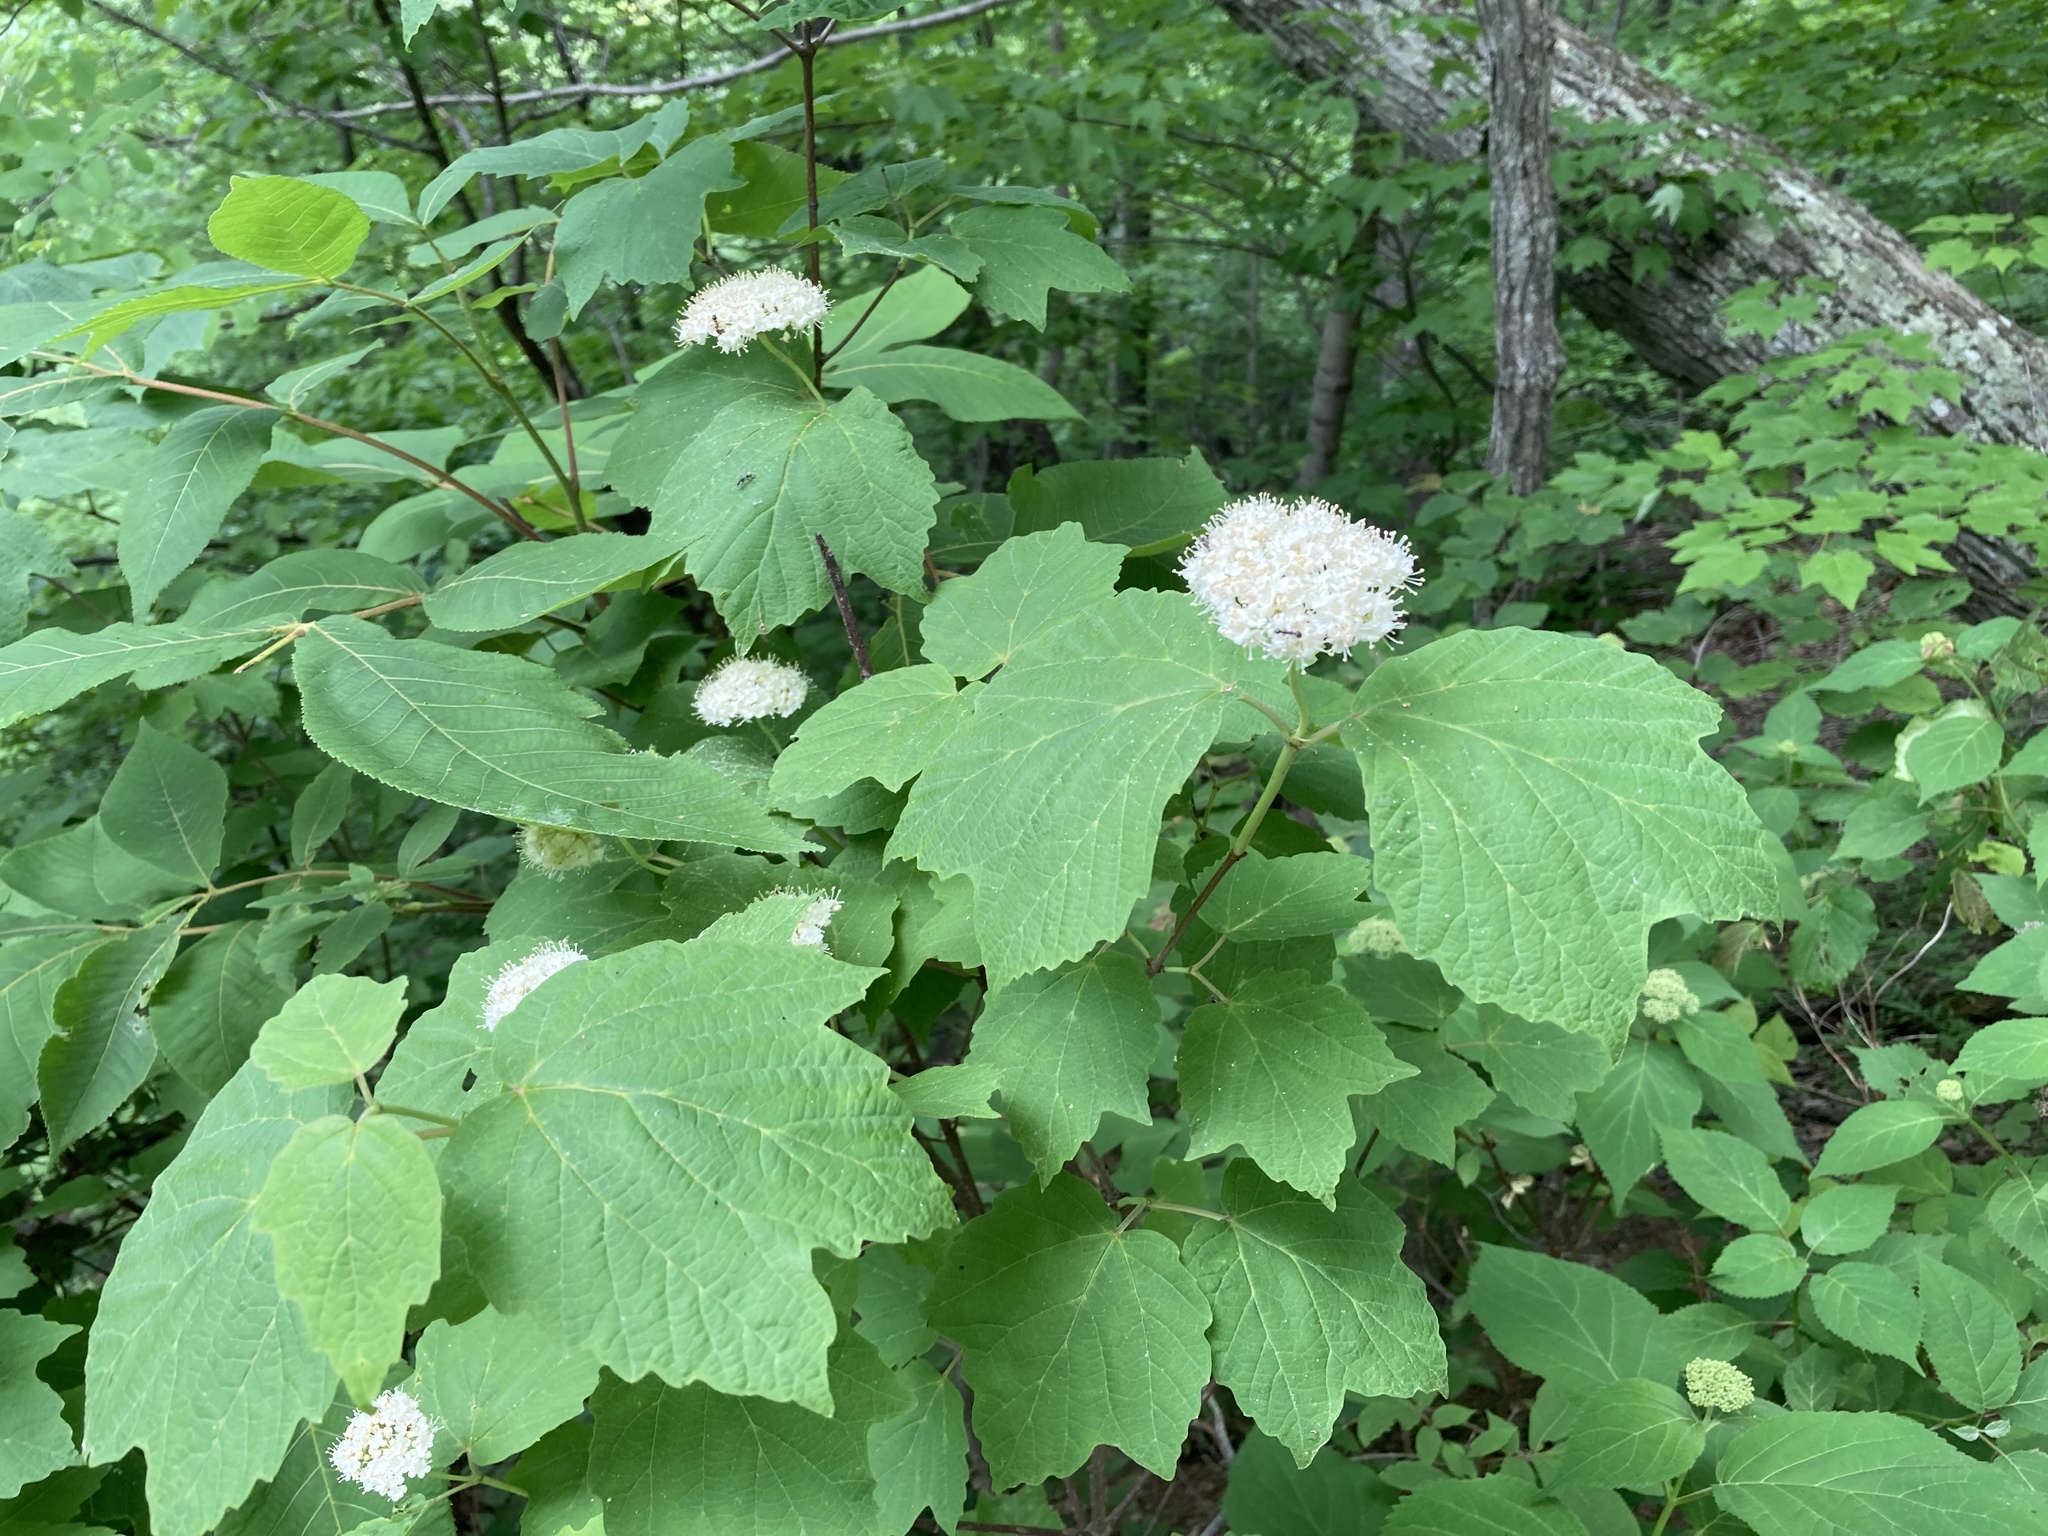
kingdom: Plantae
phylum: Tracheophyta
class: Magnoliopsida
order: Dipsacales
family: Viburnaceae
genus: Viburnum
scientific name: Viburnum acerifolium
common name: Dockmackie
